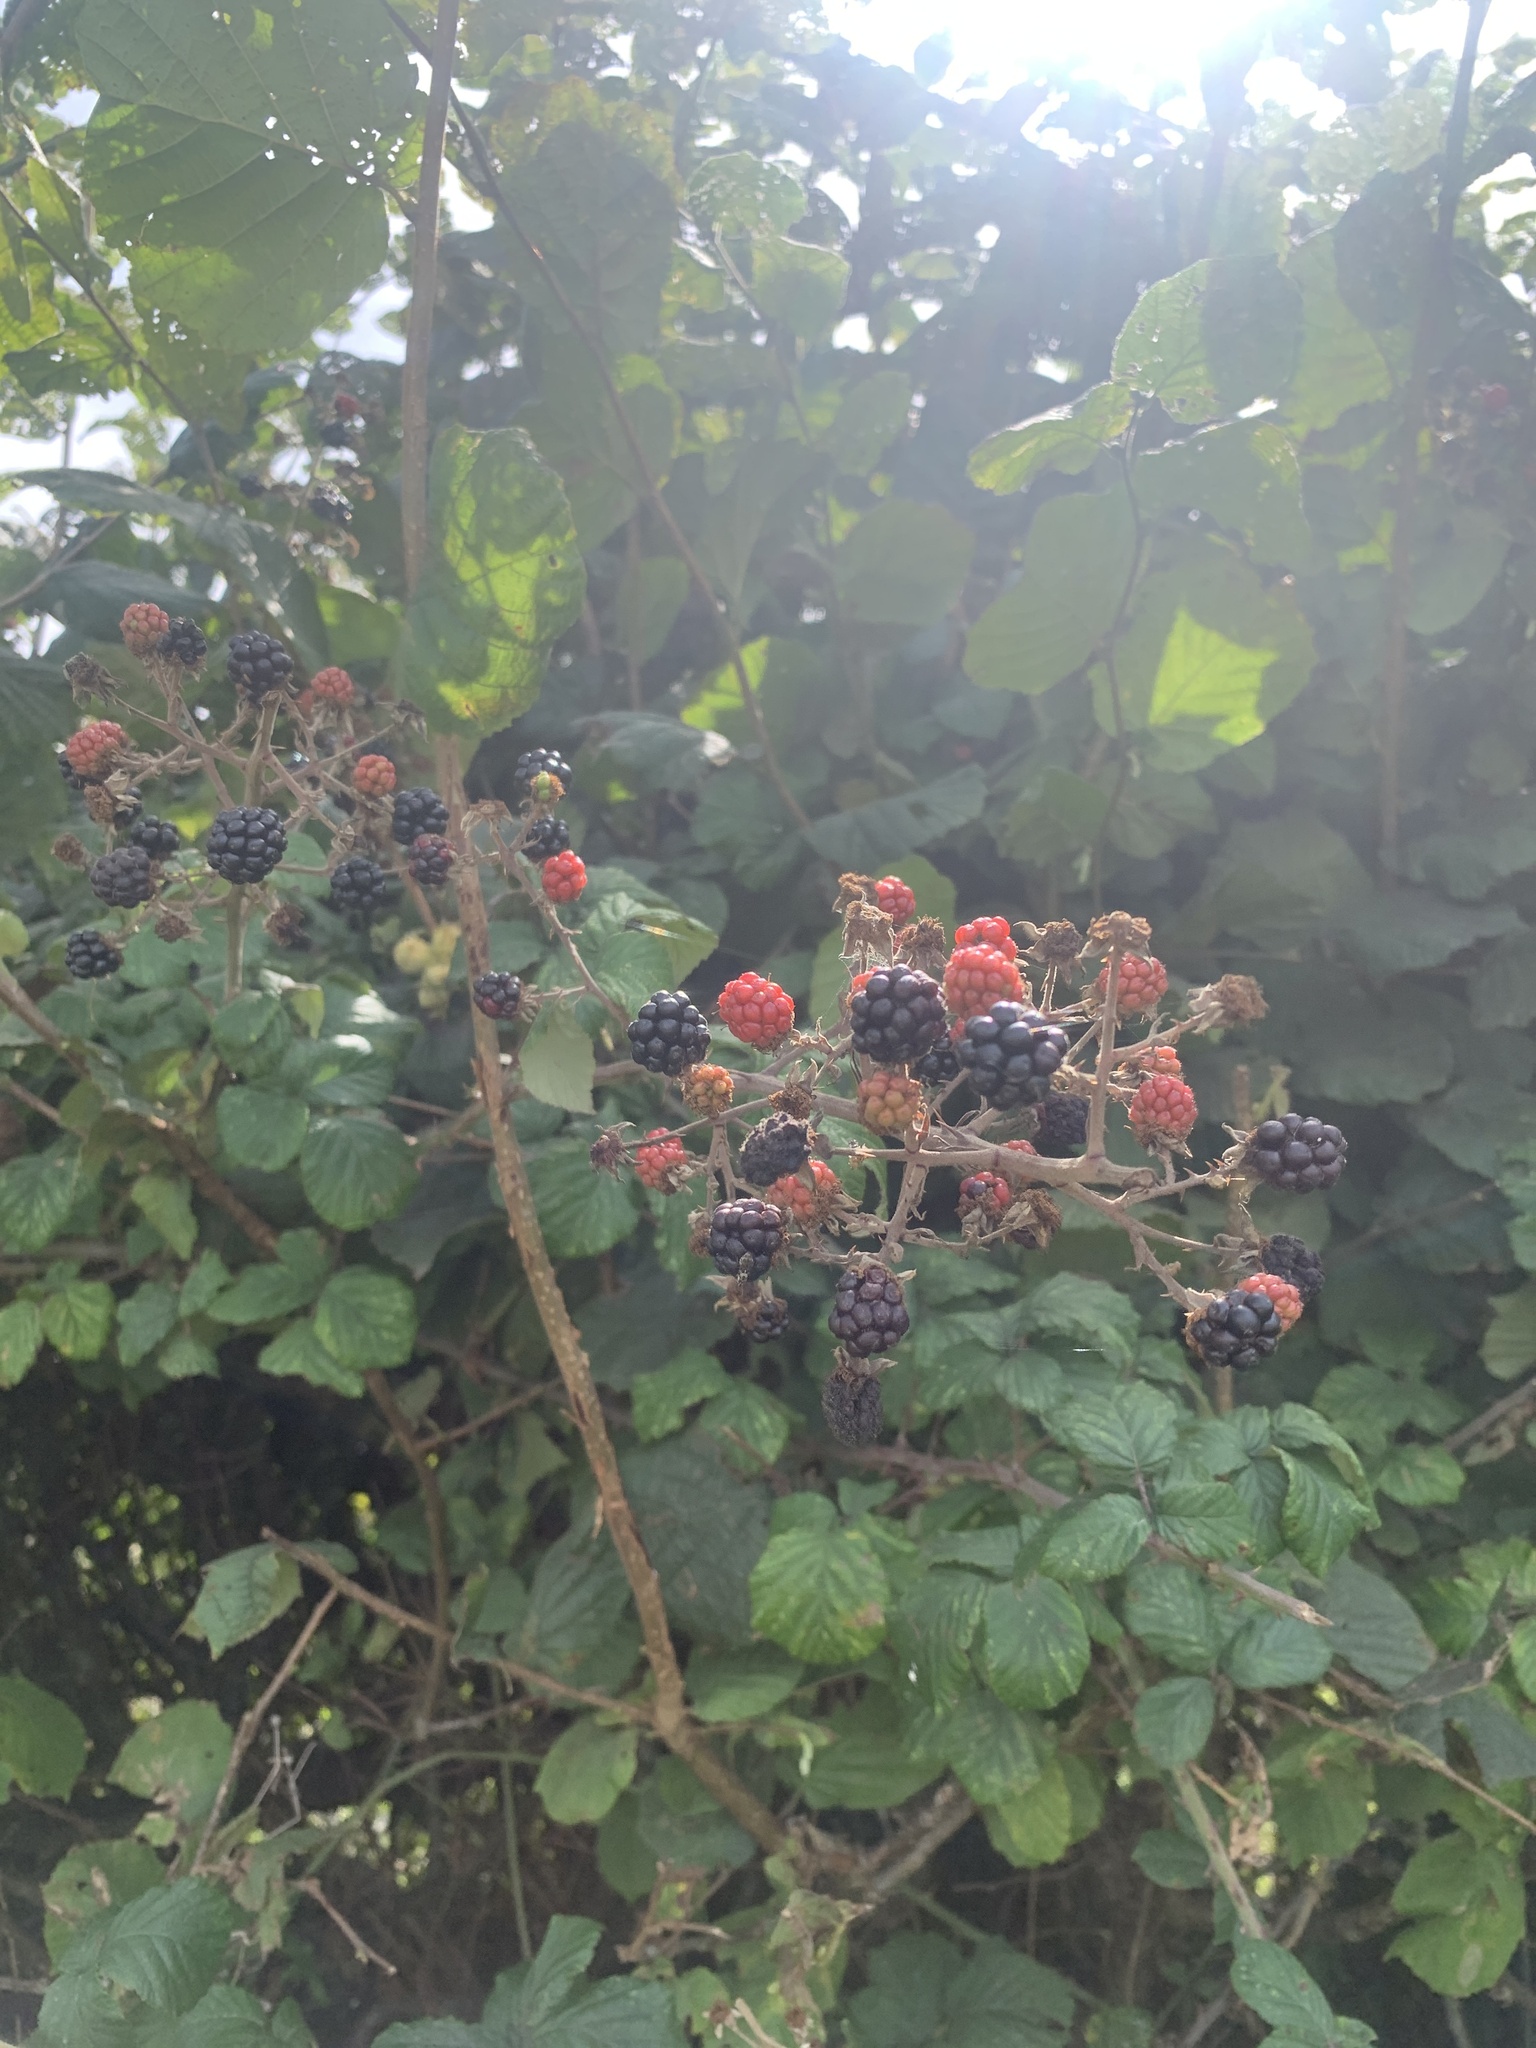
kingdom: Plantae
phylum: Tracheophyta
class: Magnoliopsida
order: Rosales
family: Rosaceae
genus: Rubus
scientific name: Rubus fruticosus
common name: Blackberry, bramble
